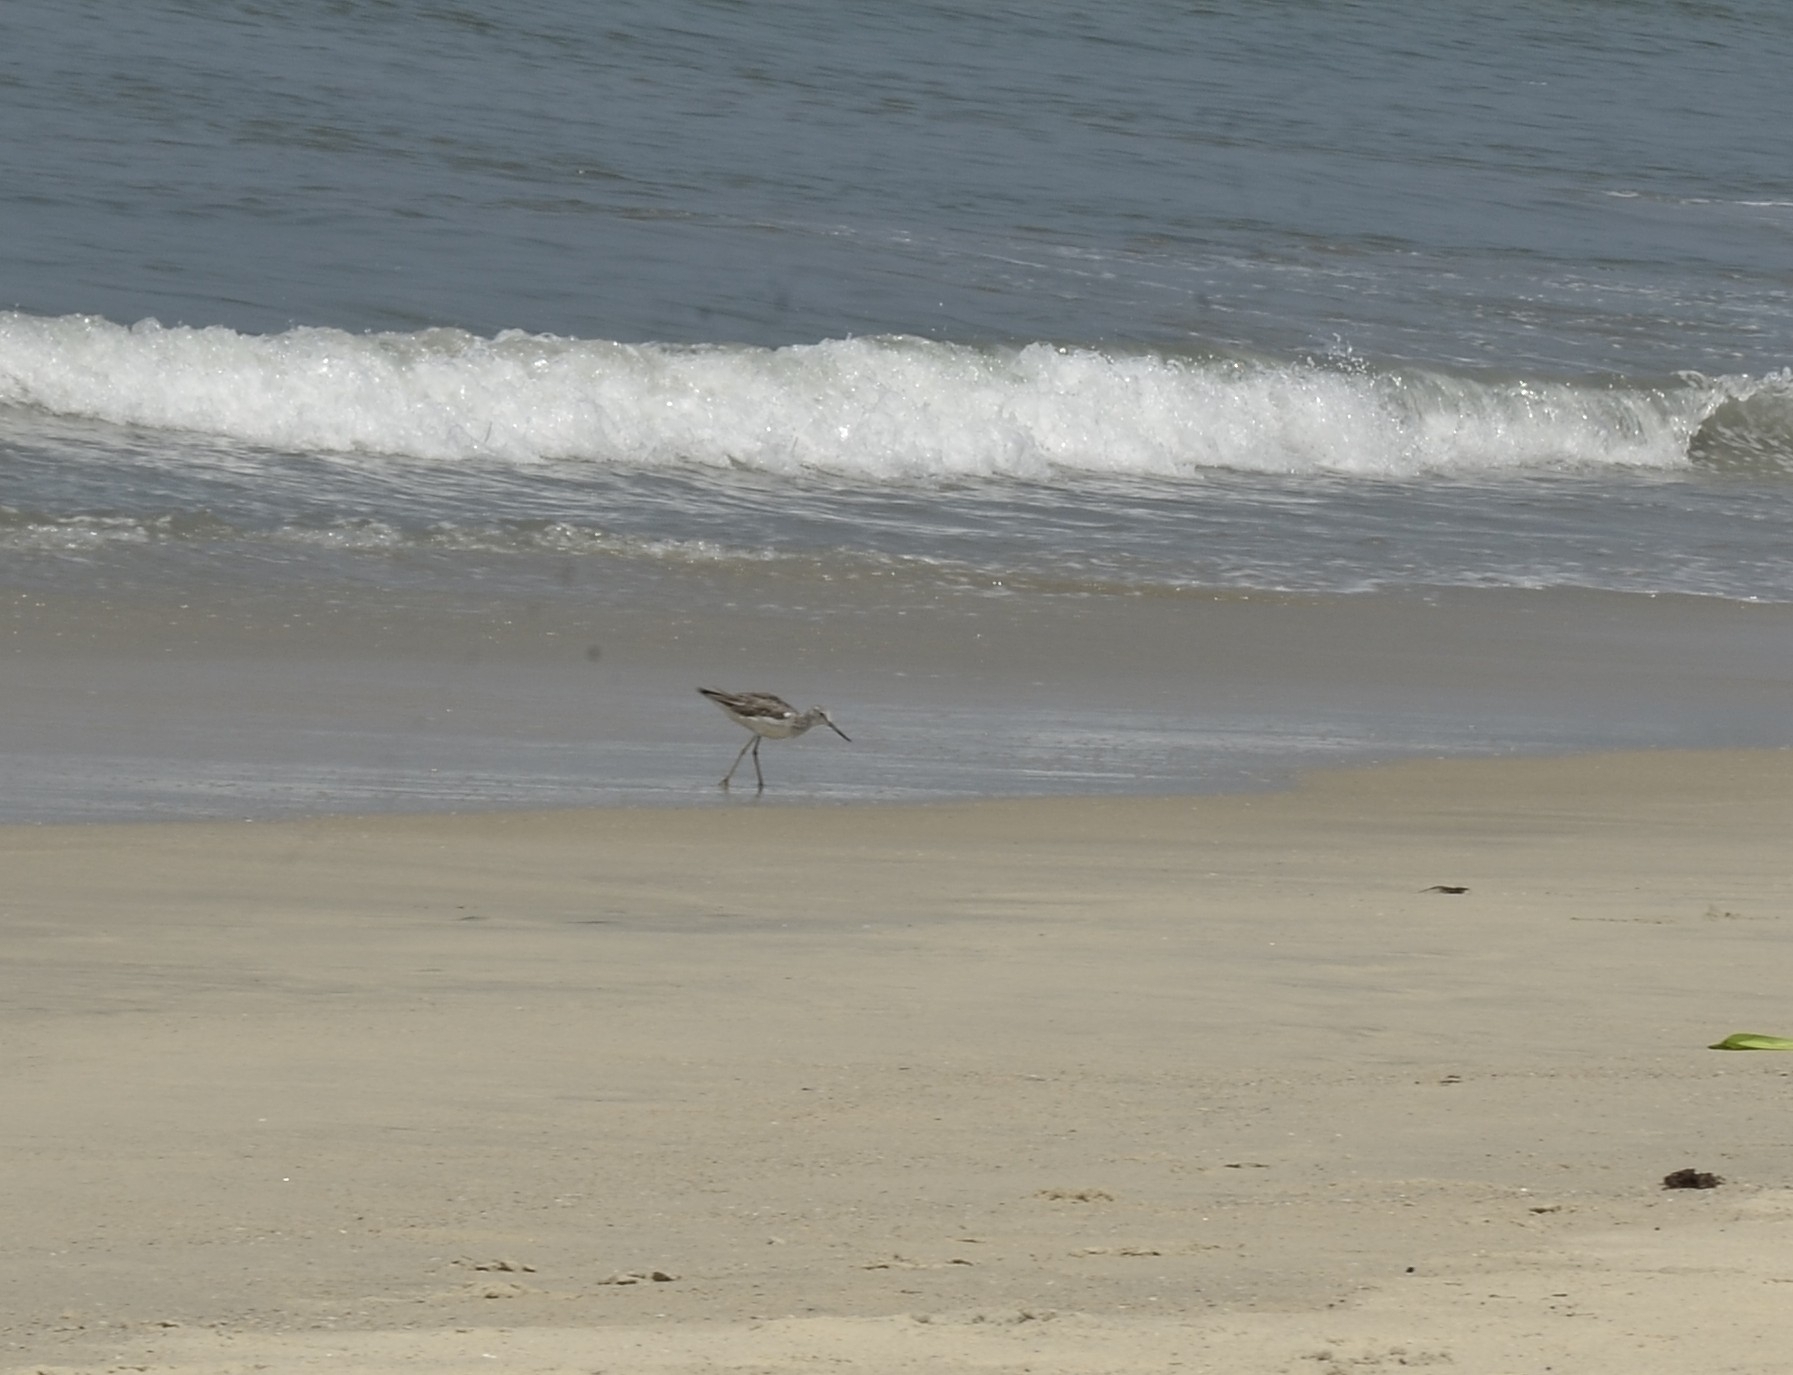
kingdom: Animalia
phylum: Chordata
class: Aves
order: Charadriiformes
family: Scolopacidae
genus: Tringa
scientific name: Tringa nebularia
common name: Common greenshank
